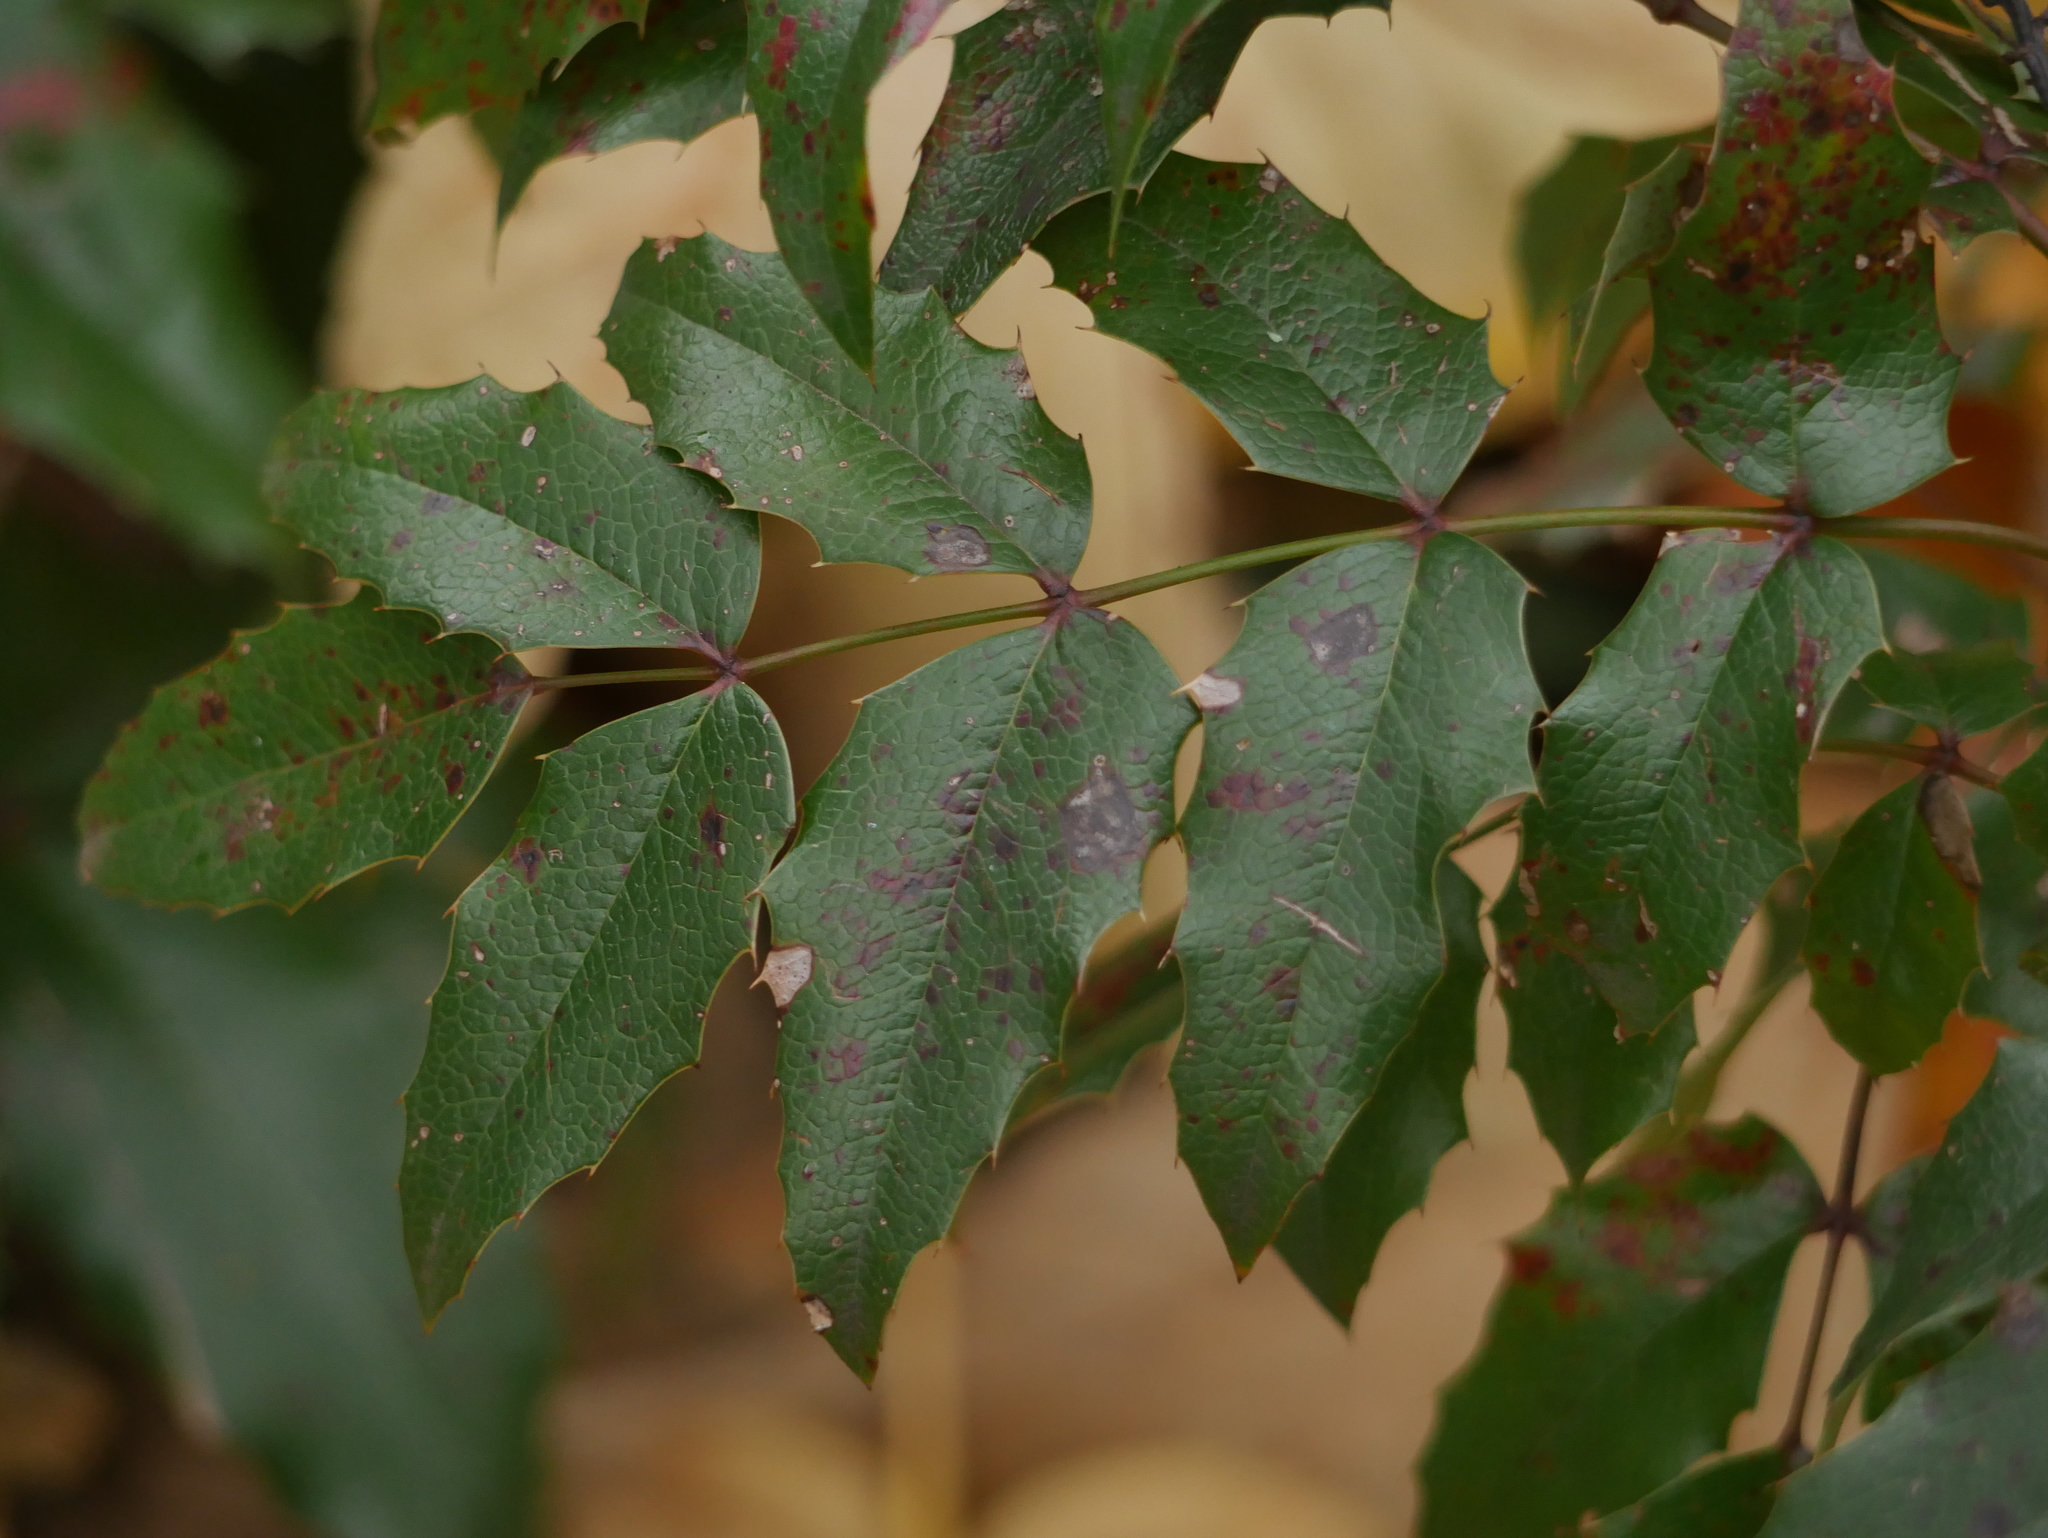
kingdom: Plantae
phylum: Tracheophyta
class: Magnoliopsida
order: Ranunculales
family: Berberidaceae
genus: Mahonia
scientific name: Mahonia aquifolium
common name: Oregon-grape
